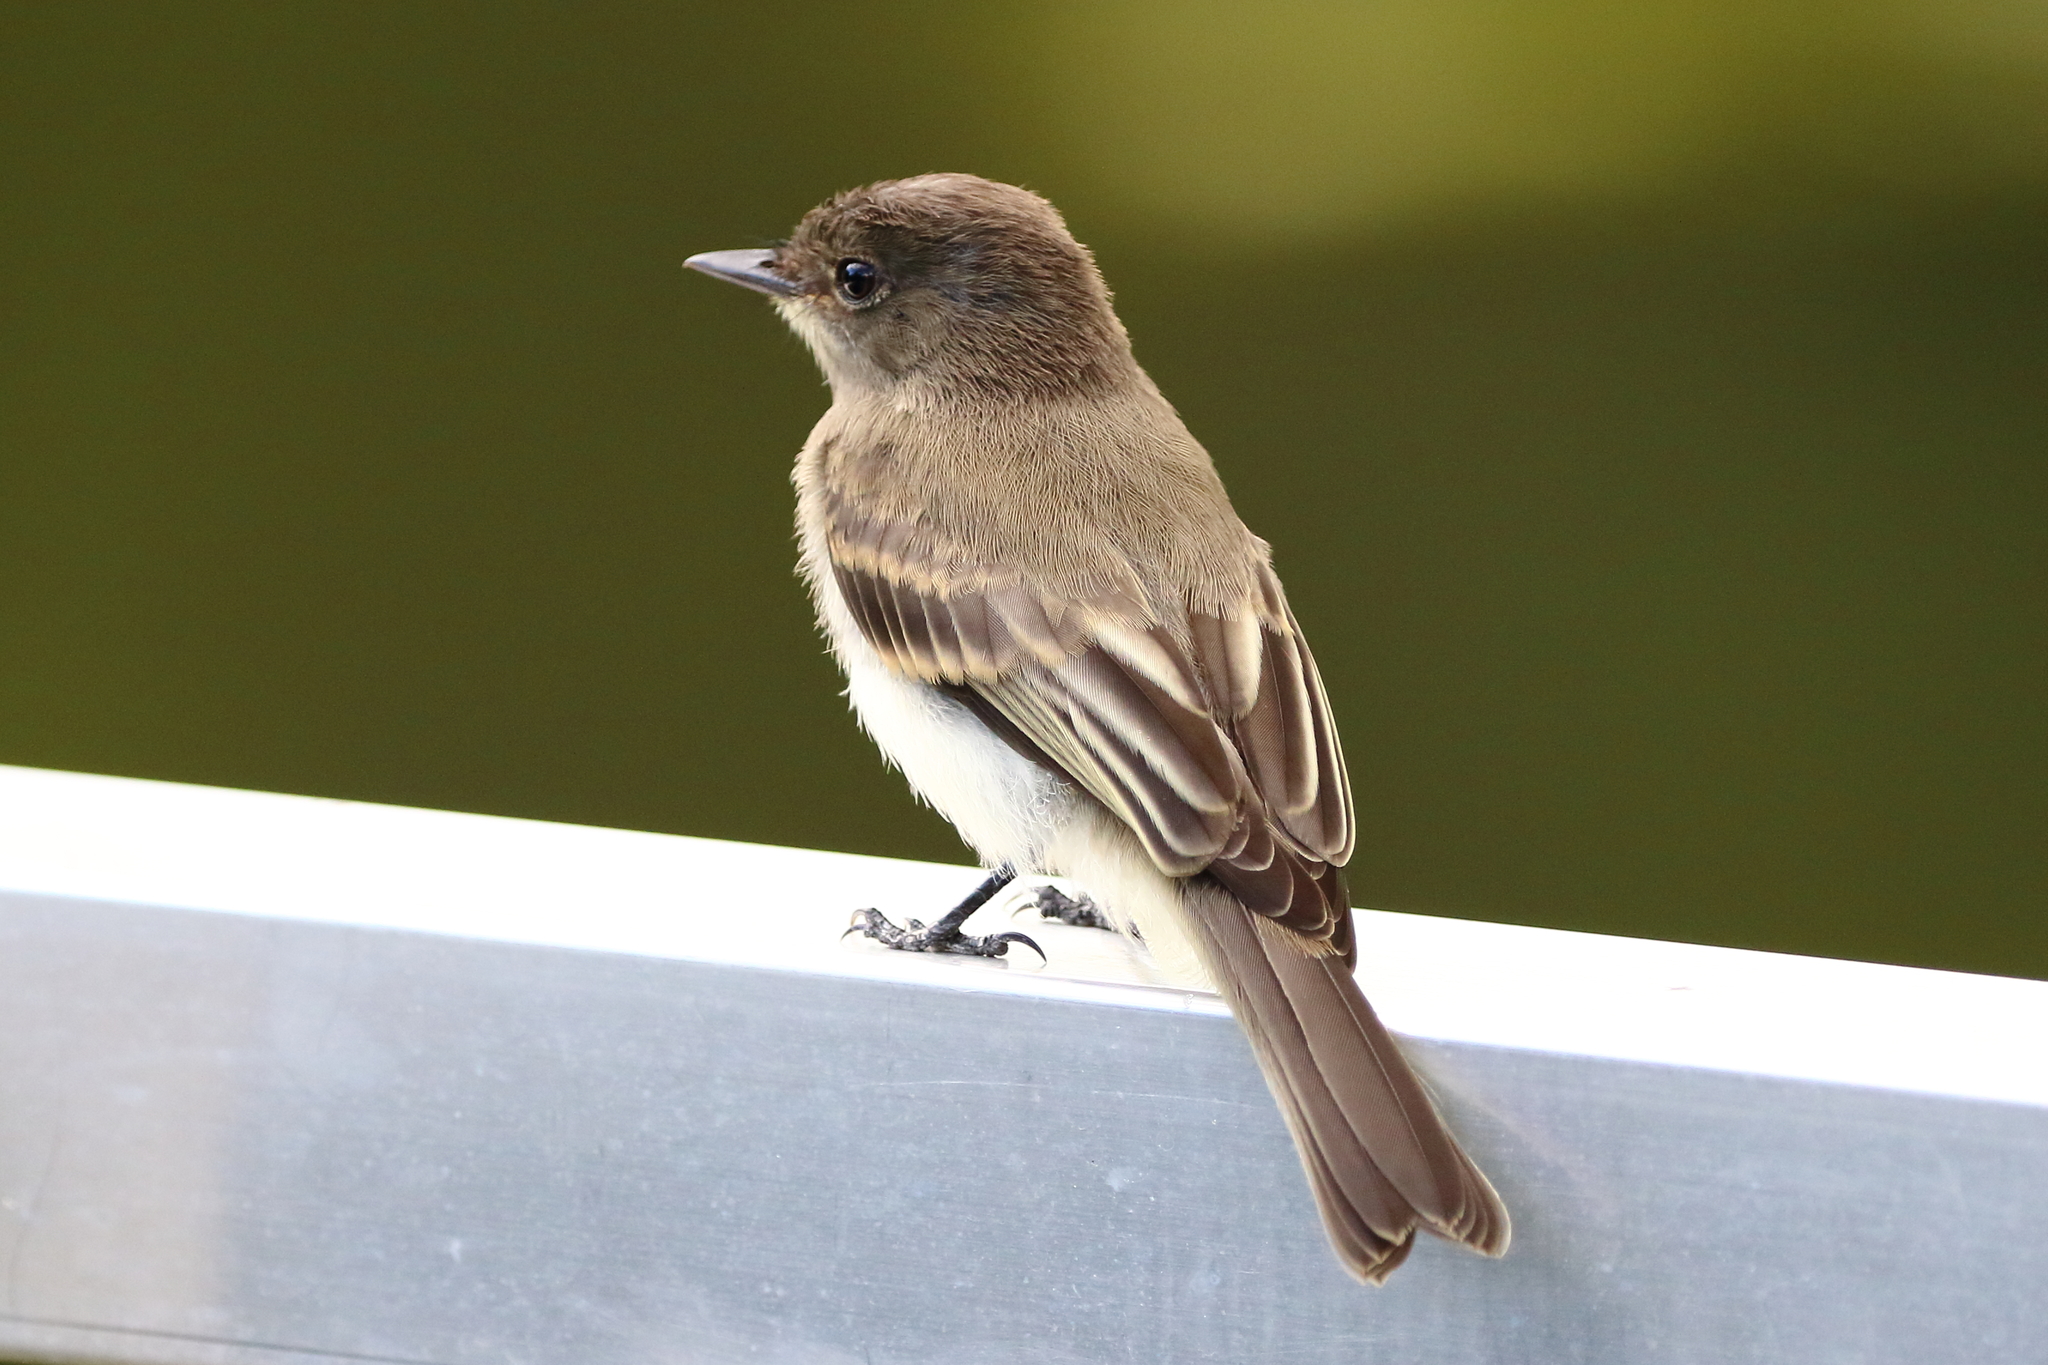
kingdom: Animalia
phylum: Chordata
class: Aves
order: Passeriformes
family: Tyrannidae
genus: Sayornis
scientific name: Sayornis phoebe
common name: Eastern phoebe
